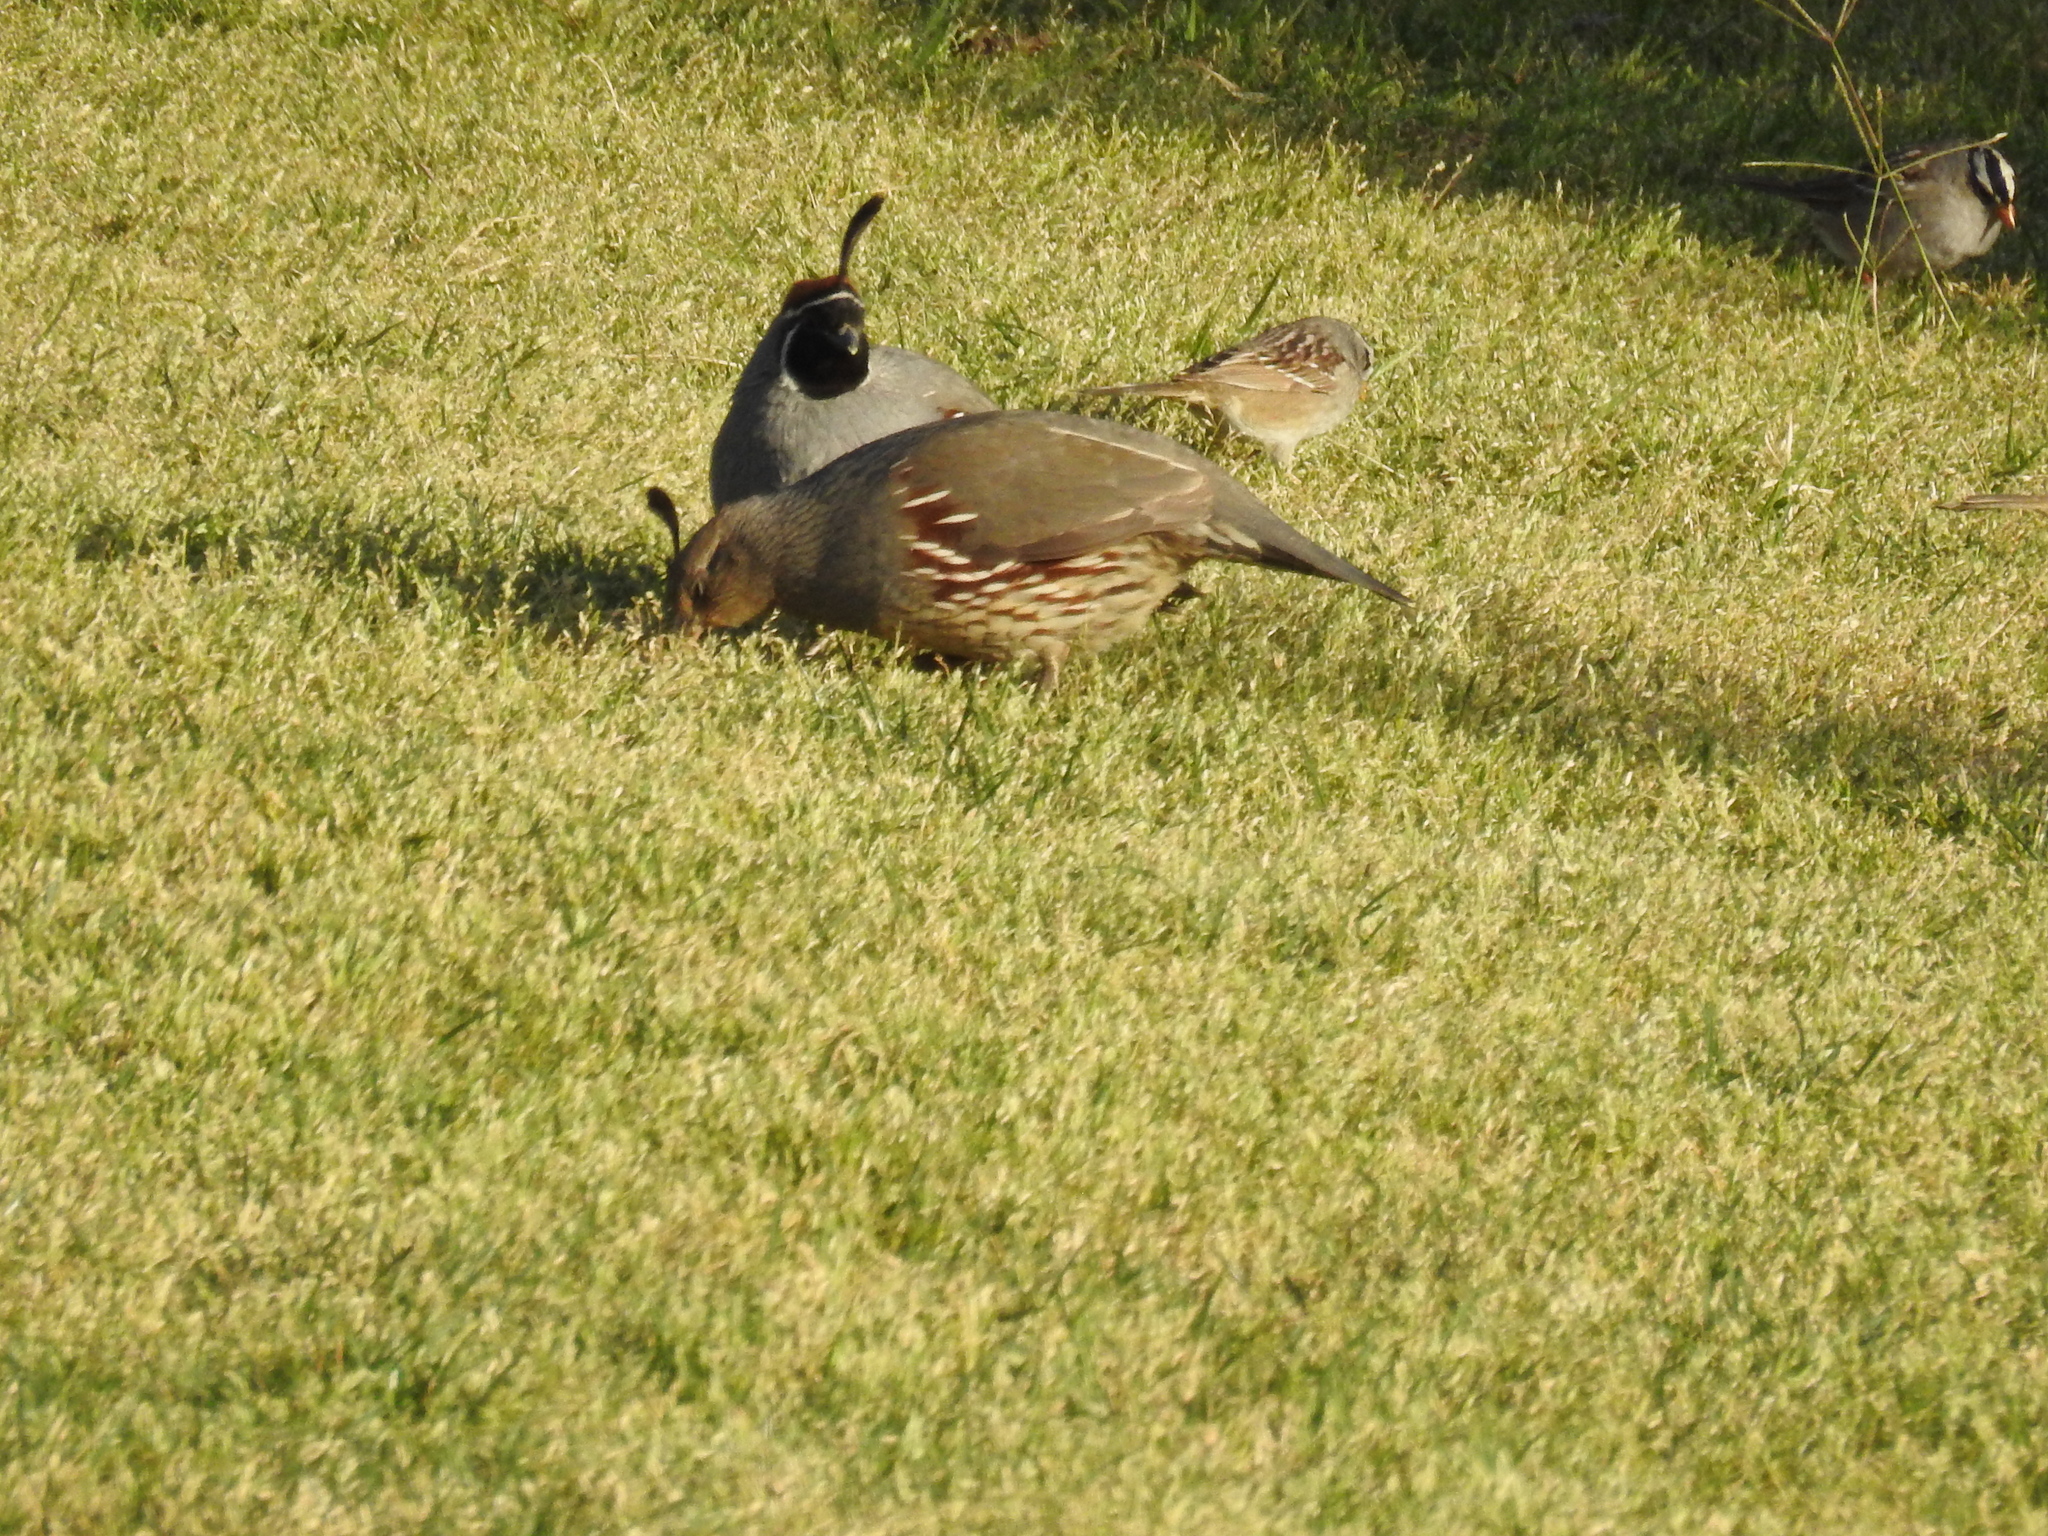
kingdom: Animalia
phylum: Chordata
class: Aves
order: Galliformes
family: Odontophoridae
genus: Callipepla
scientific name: Callipepla gambelii
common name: Gambel's quail
